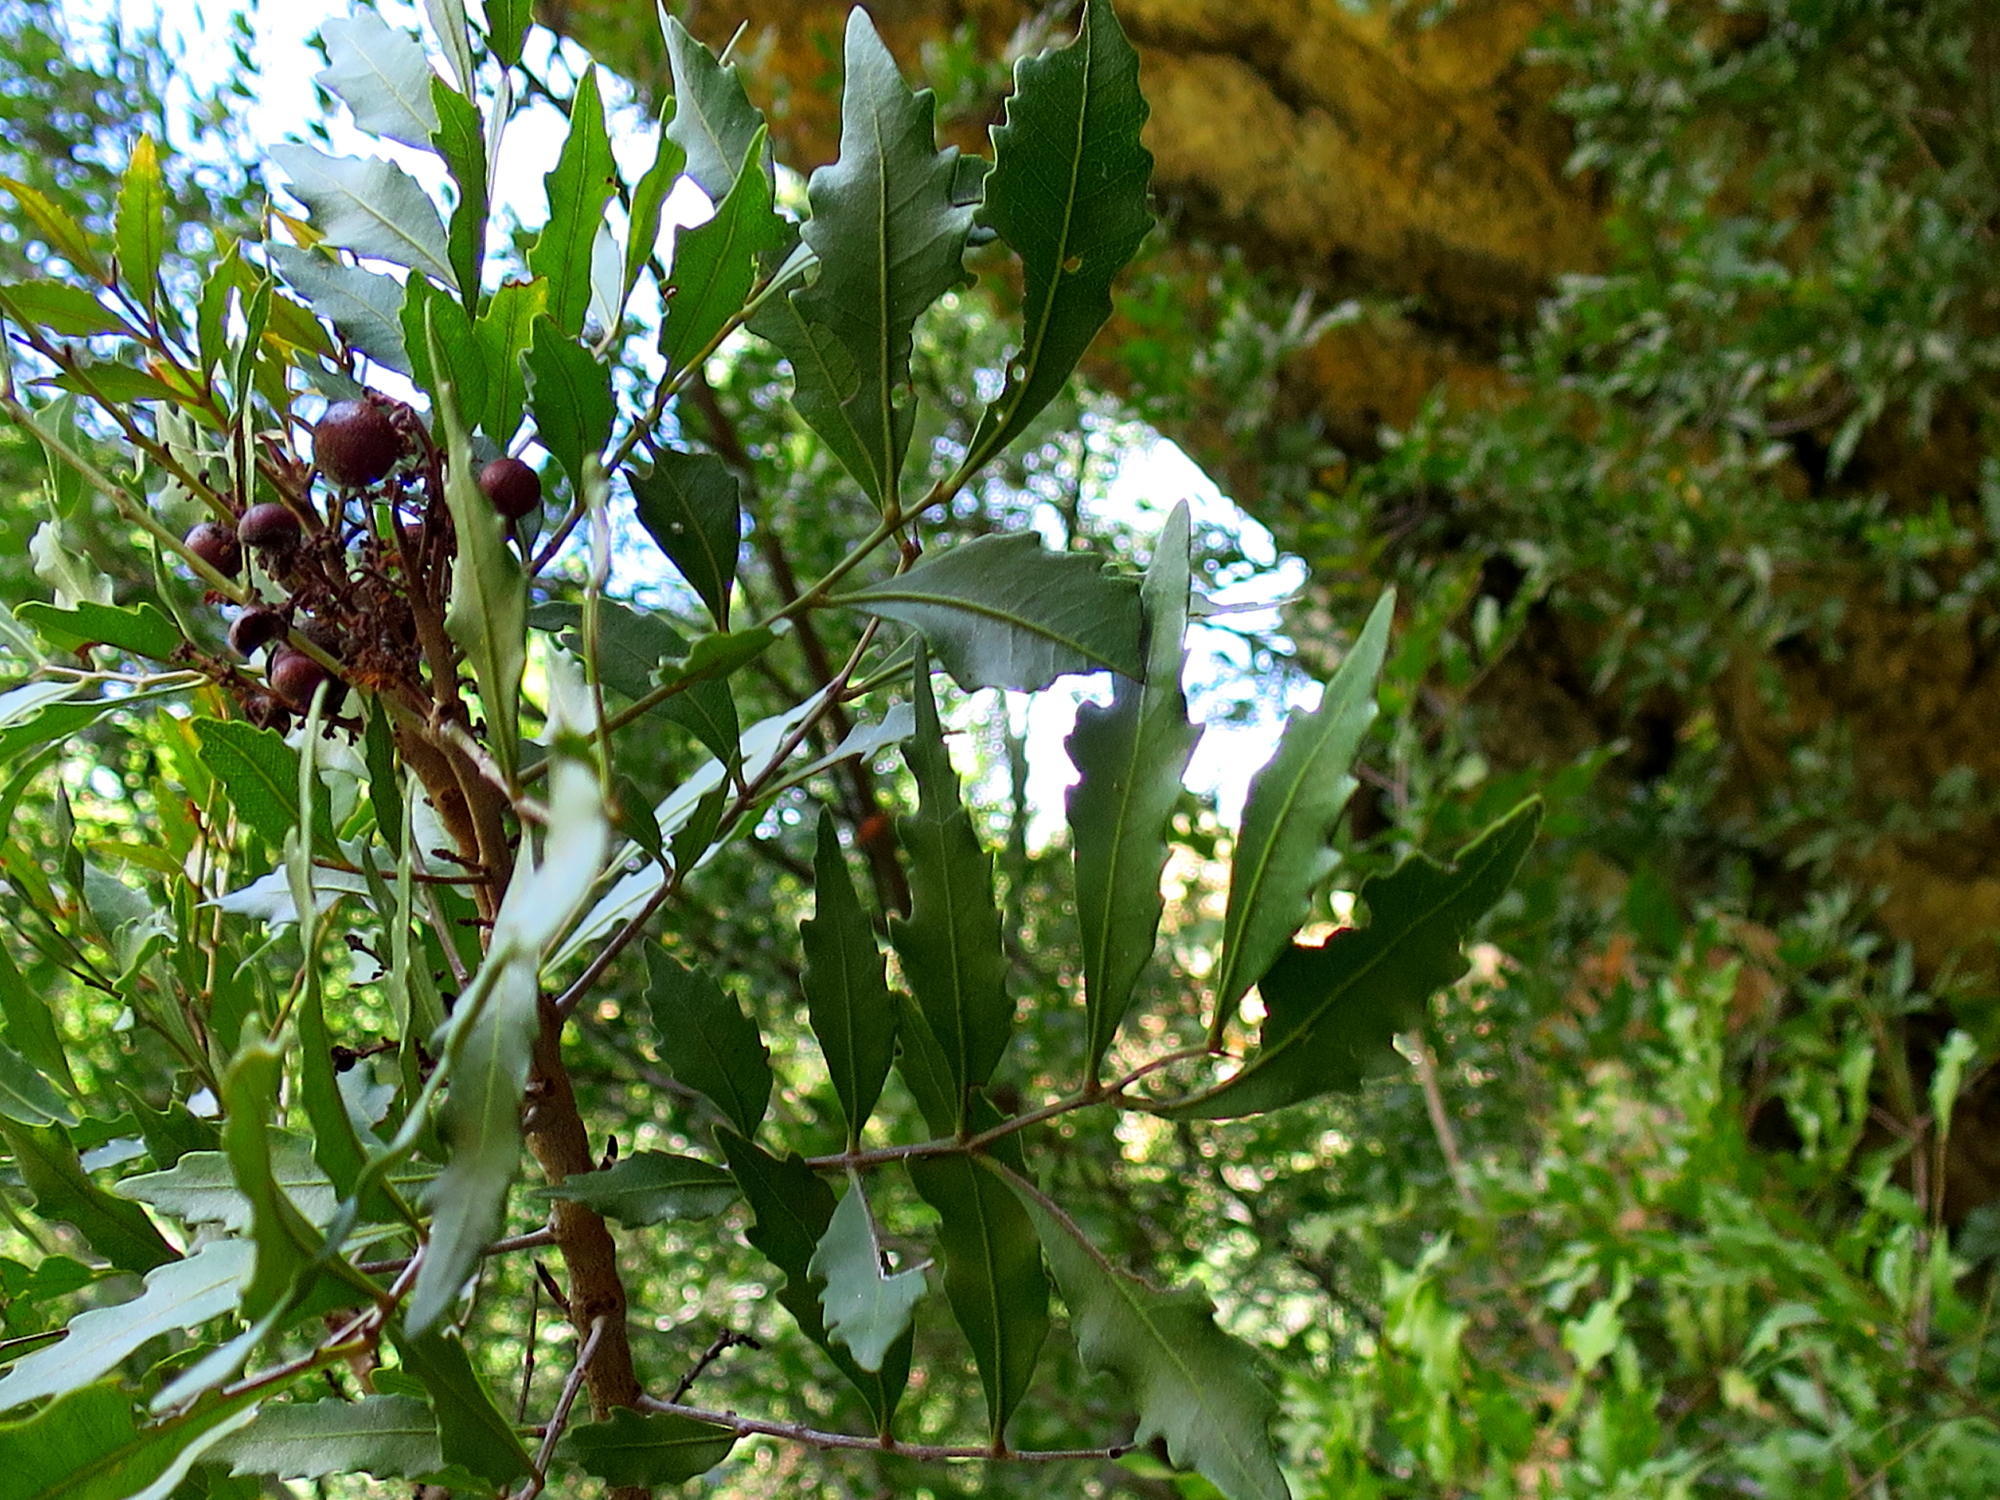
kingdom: Plantae
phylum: Tracheophyta
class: Magnoliopsida
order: Sapindales
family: Sapindaceae
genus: Smelophyllum
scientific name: Smelophyllum capense
